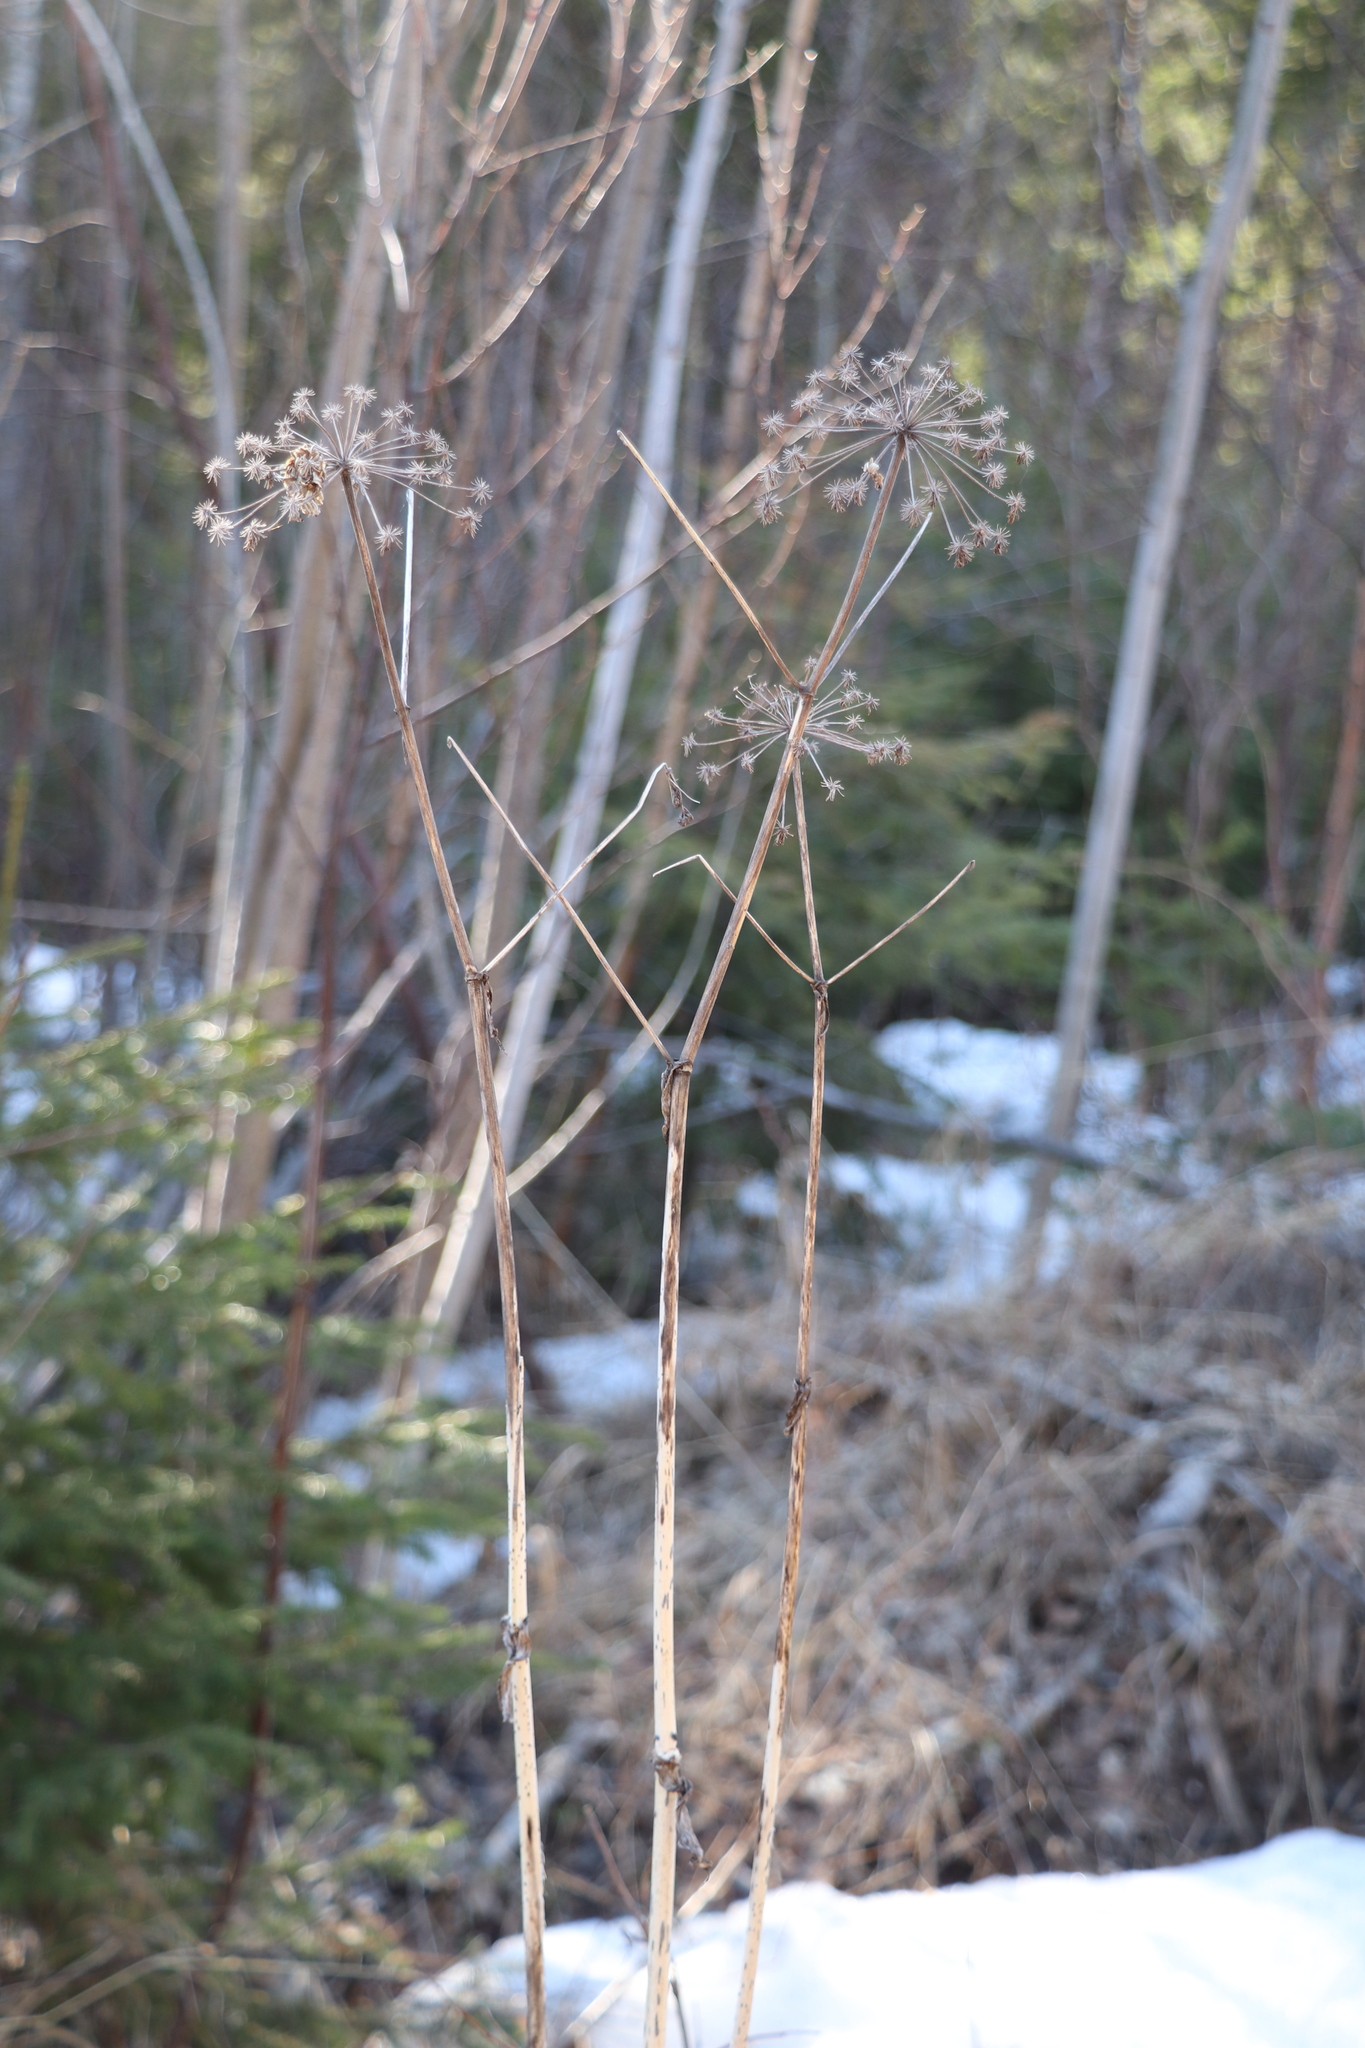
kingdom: Plantae
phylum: Tracheophyta
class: Magnoliopsida
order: Apiales
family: Apiaceae
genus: Angelica
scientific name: Angelica sylvestris
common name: Wild angelica
